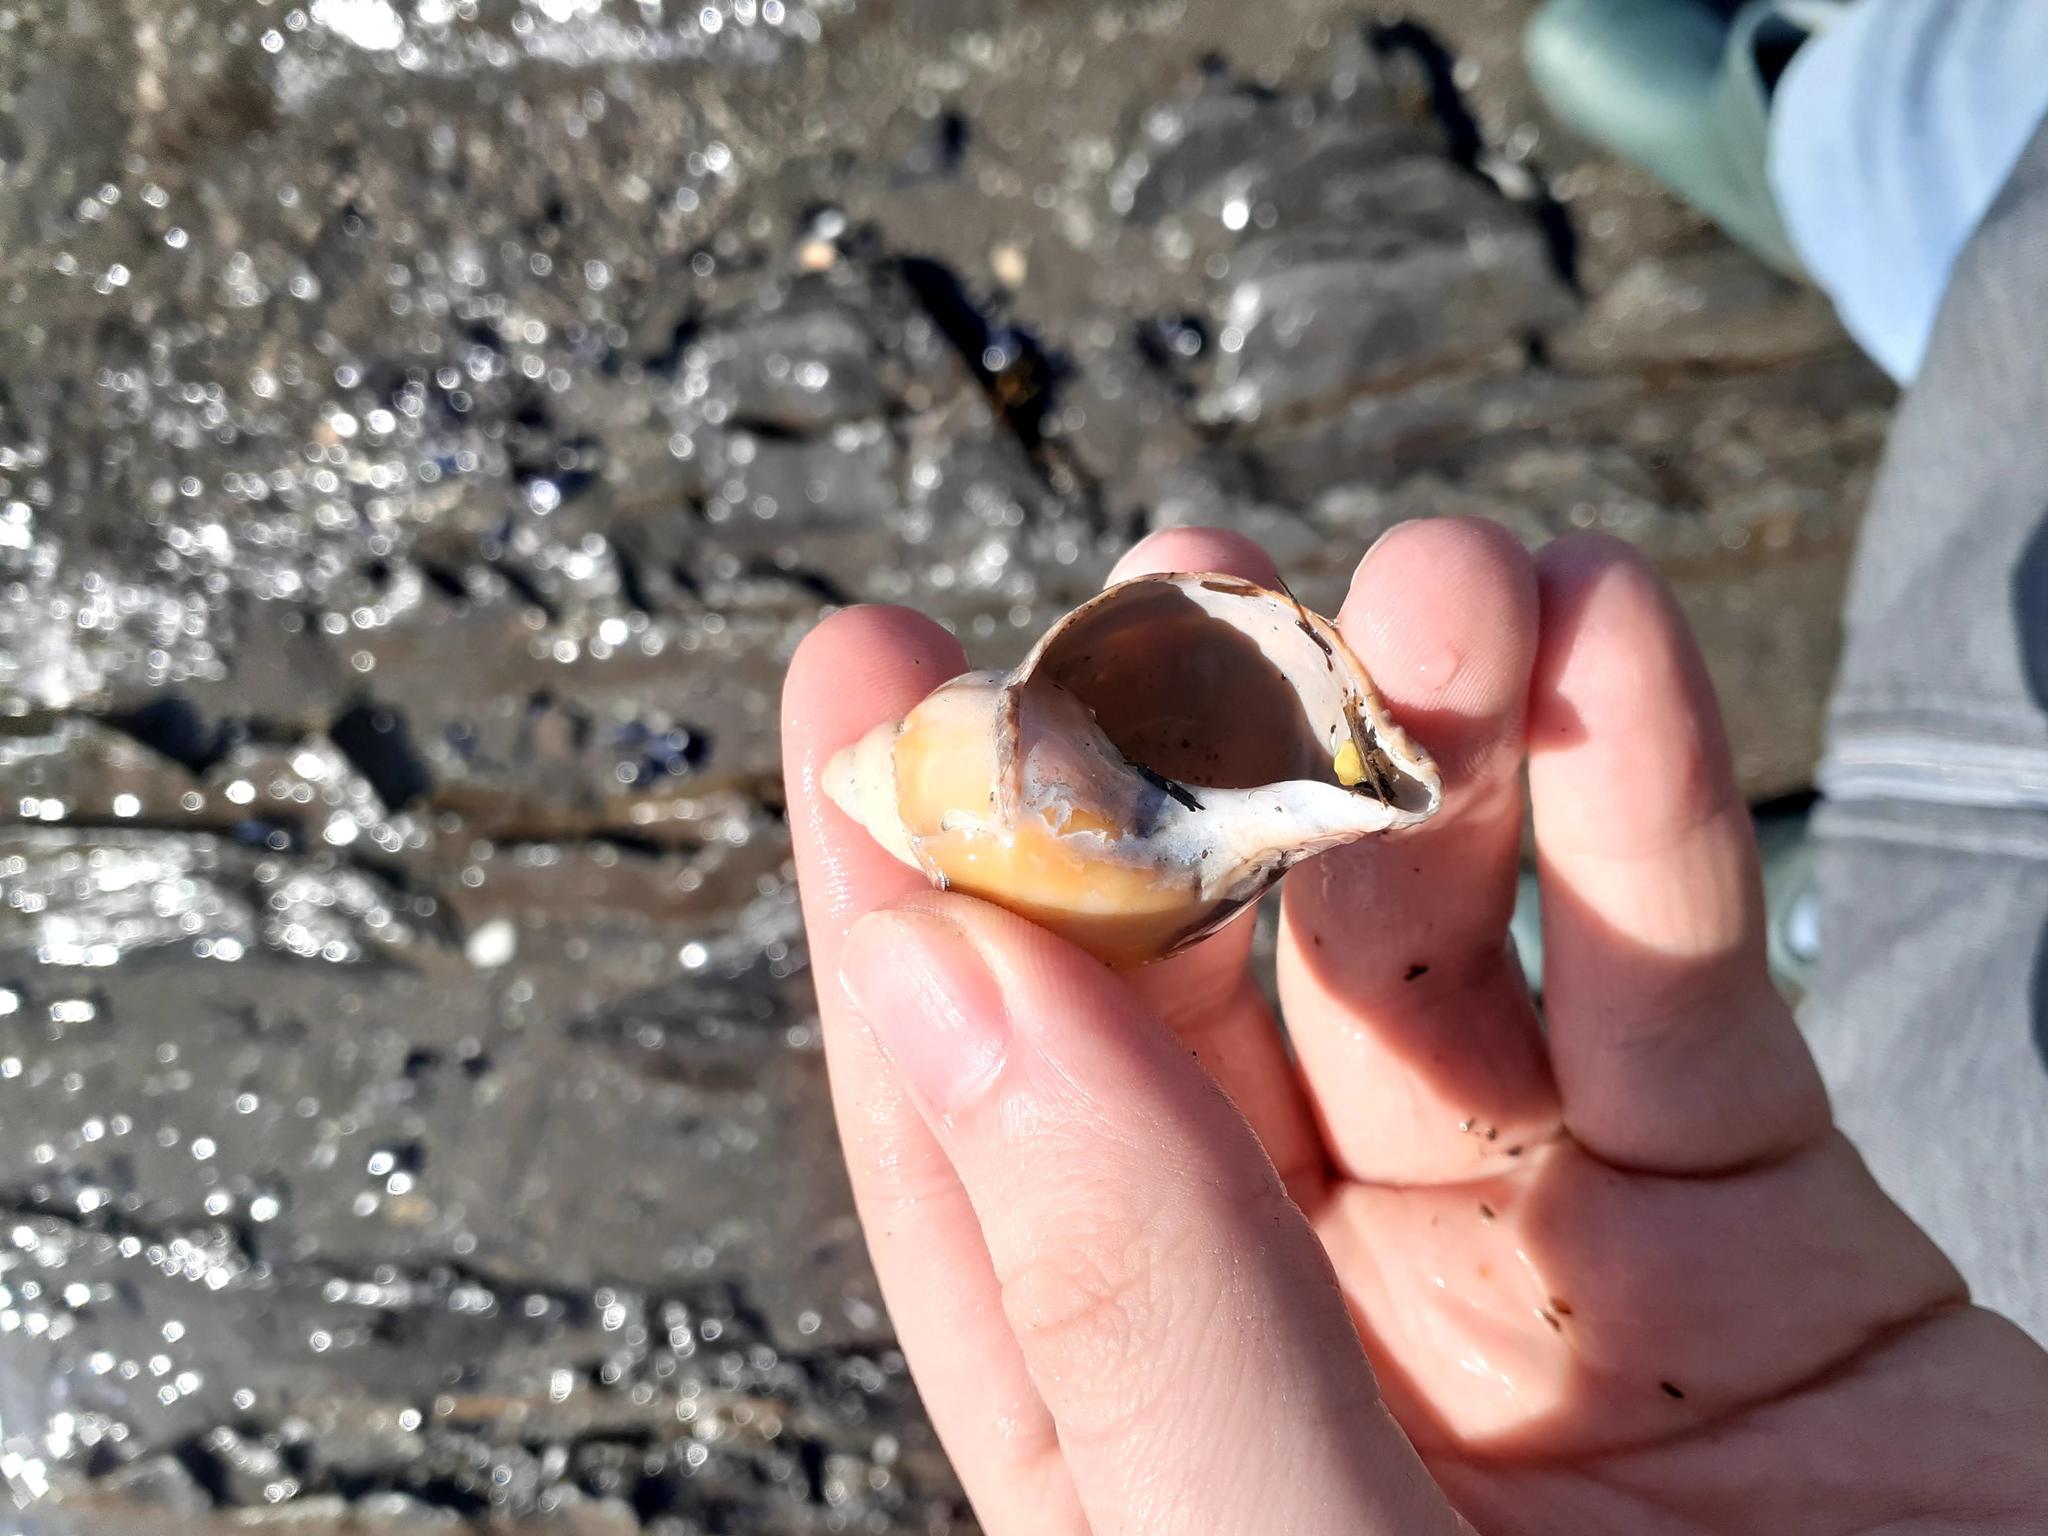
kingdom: Animalia
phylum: Mollusca
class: Gastropoda
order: Neogastropoda
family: Buccinidae
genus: Buccinum
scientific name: Buccinum undatum
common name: Common whelk
